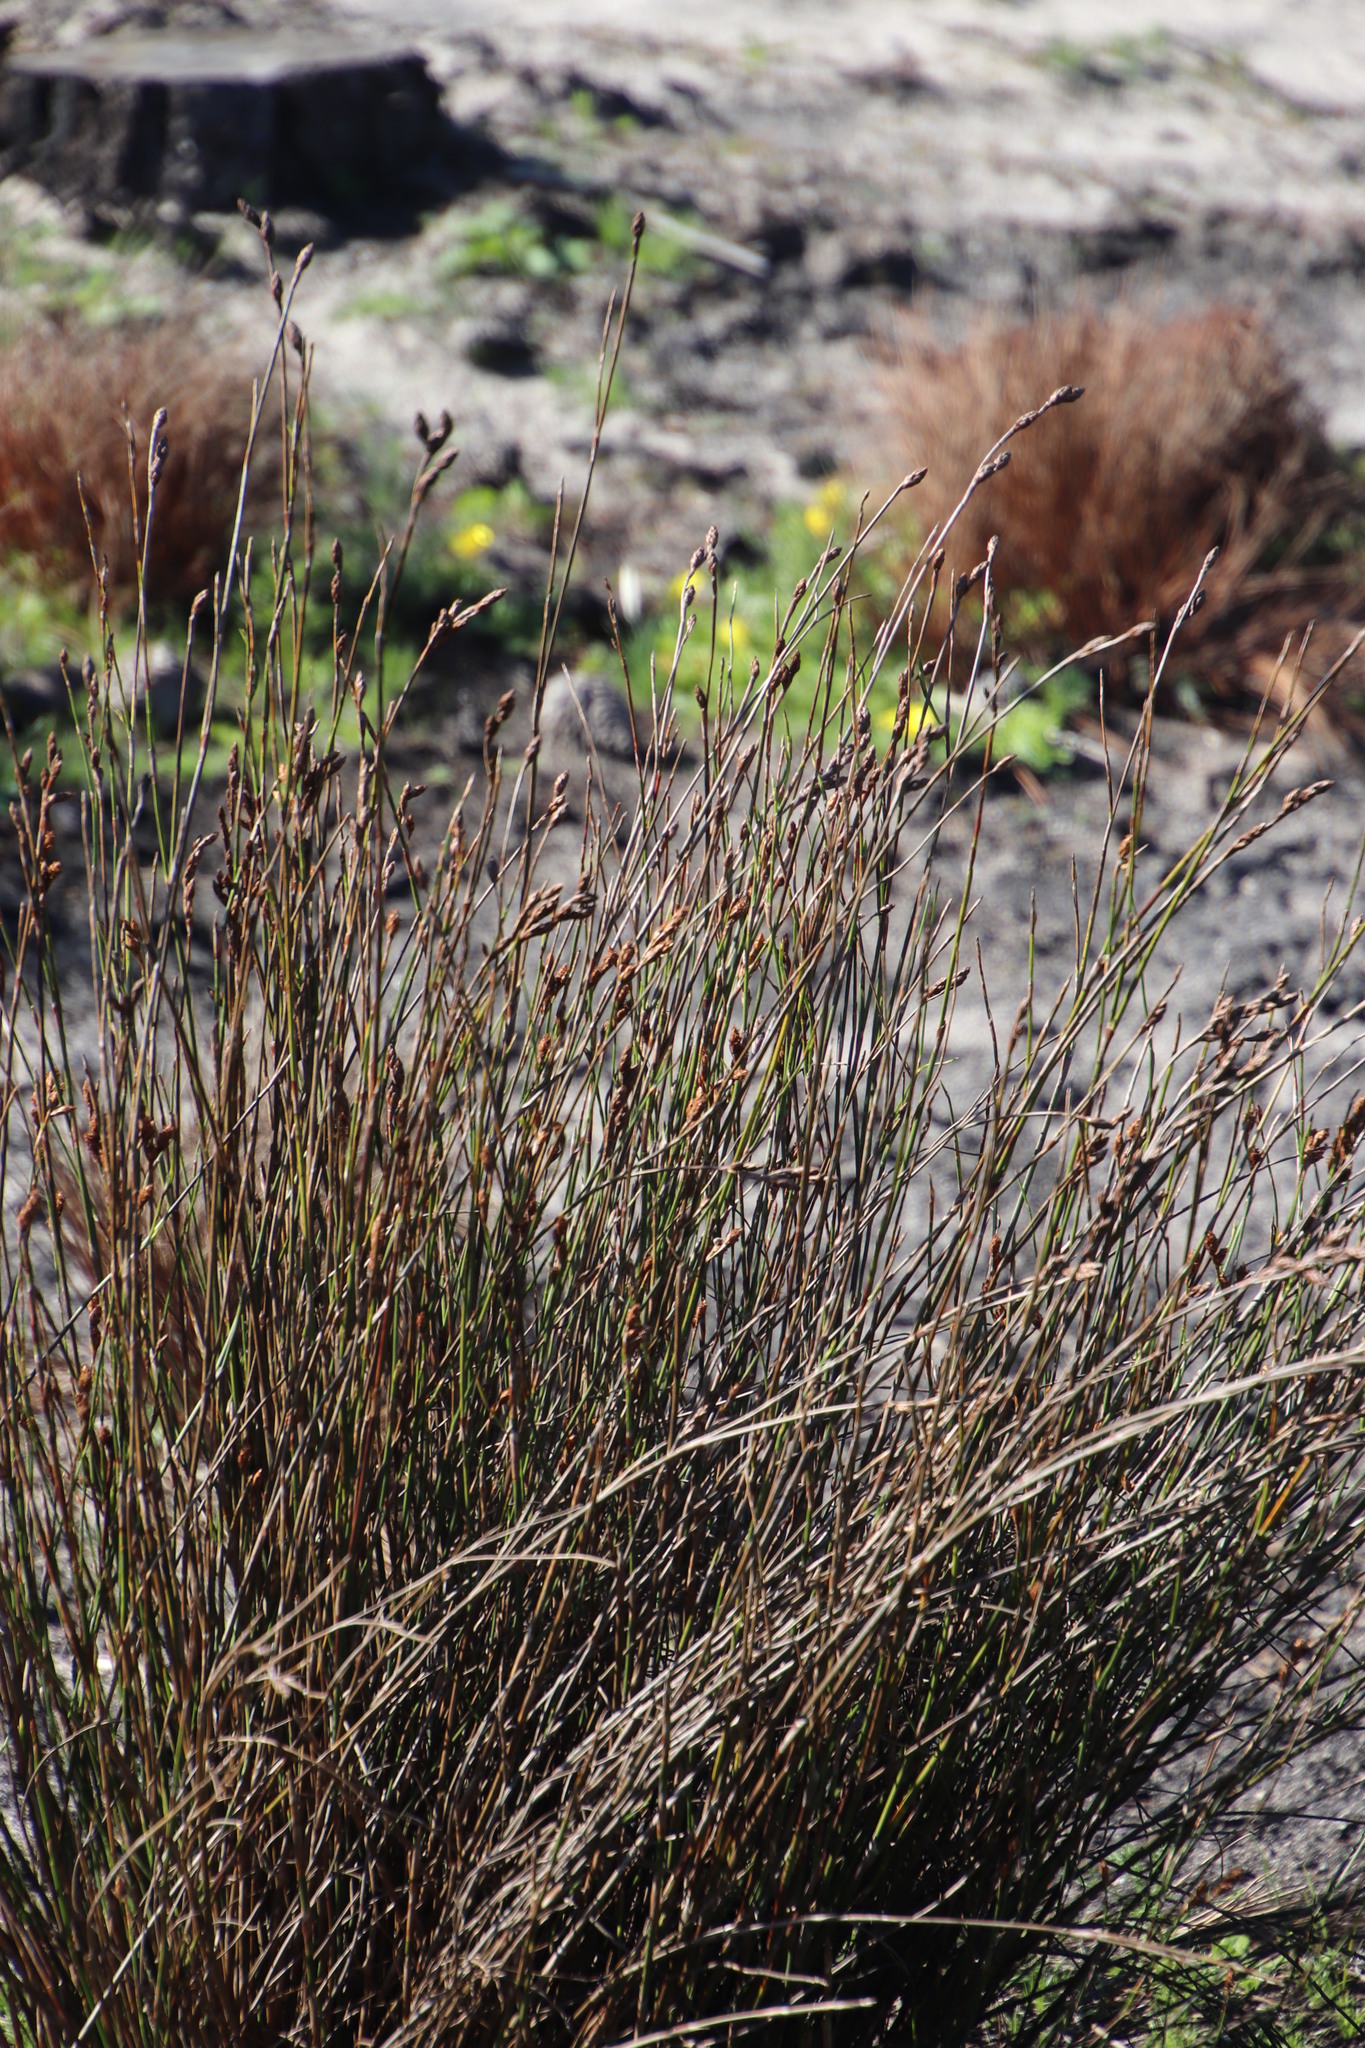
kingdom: Plantae
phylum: Tracheophyta
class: Liliopsida
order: Poales
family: Restionaceae
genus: Restio
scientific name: Restio bifurcus
